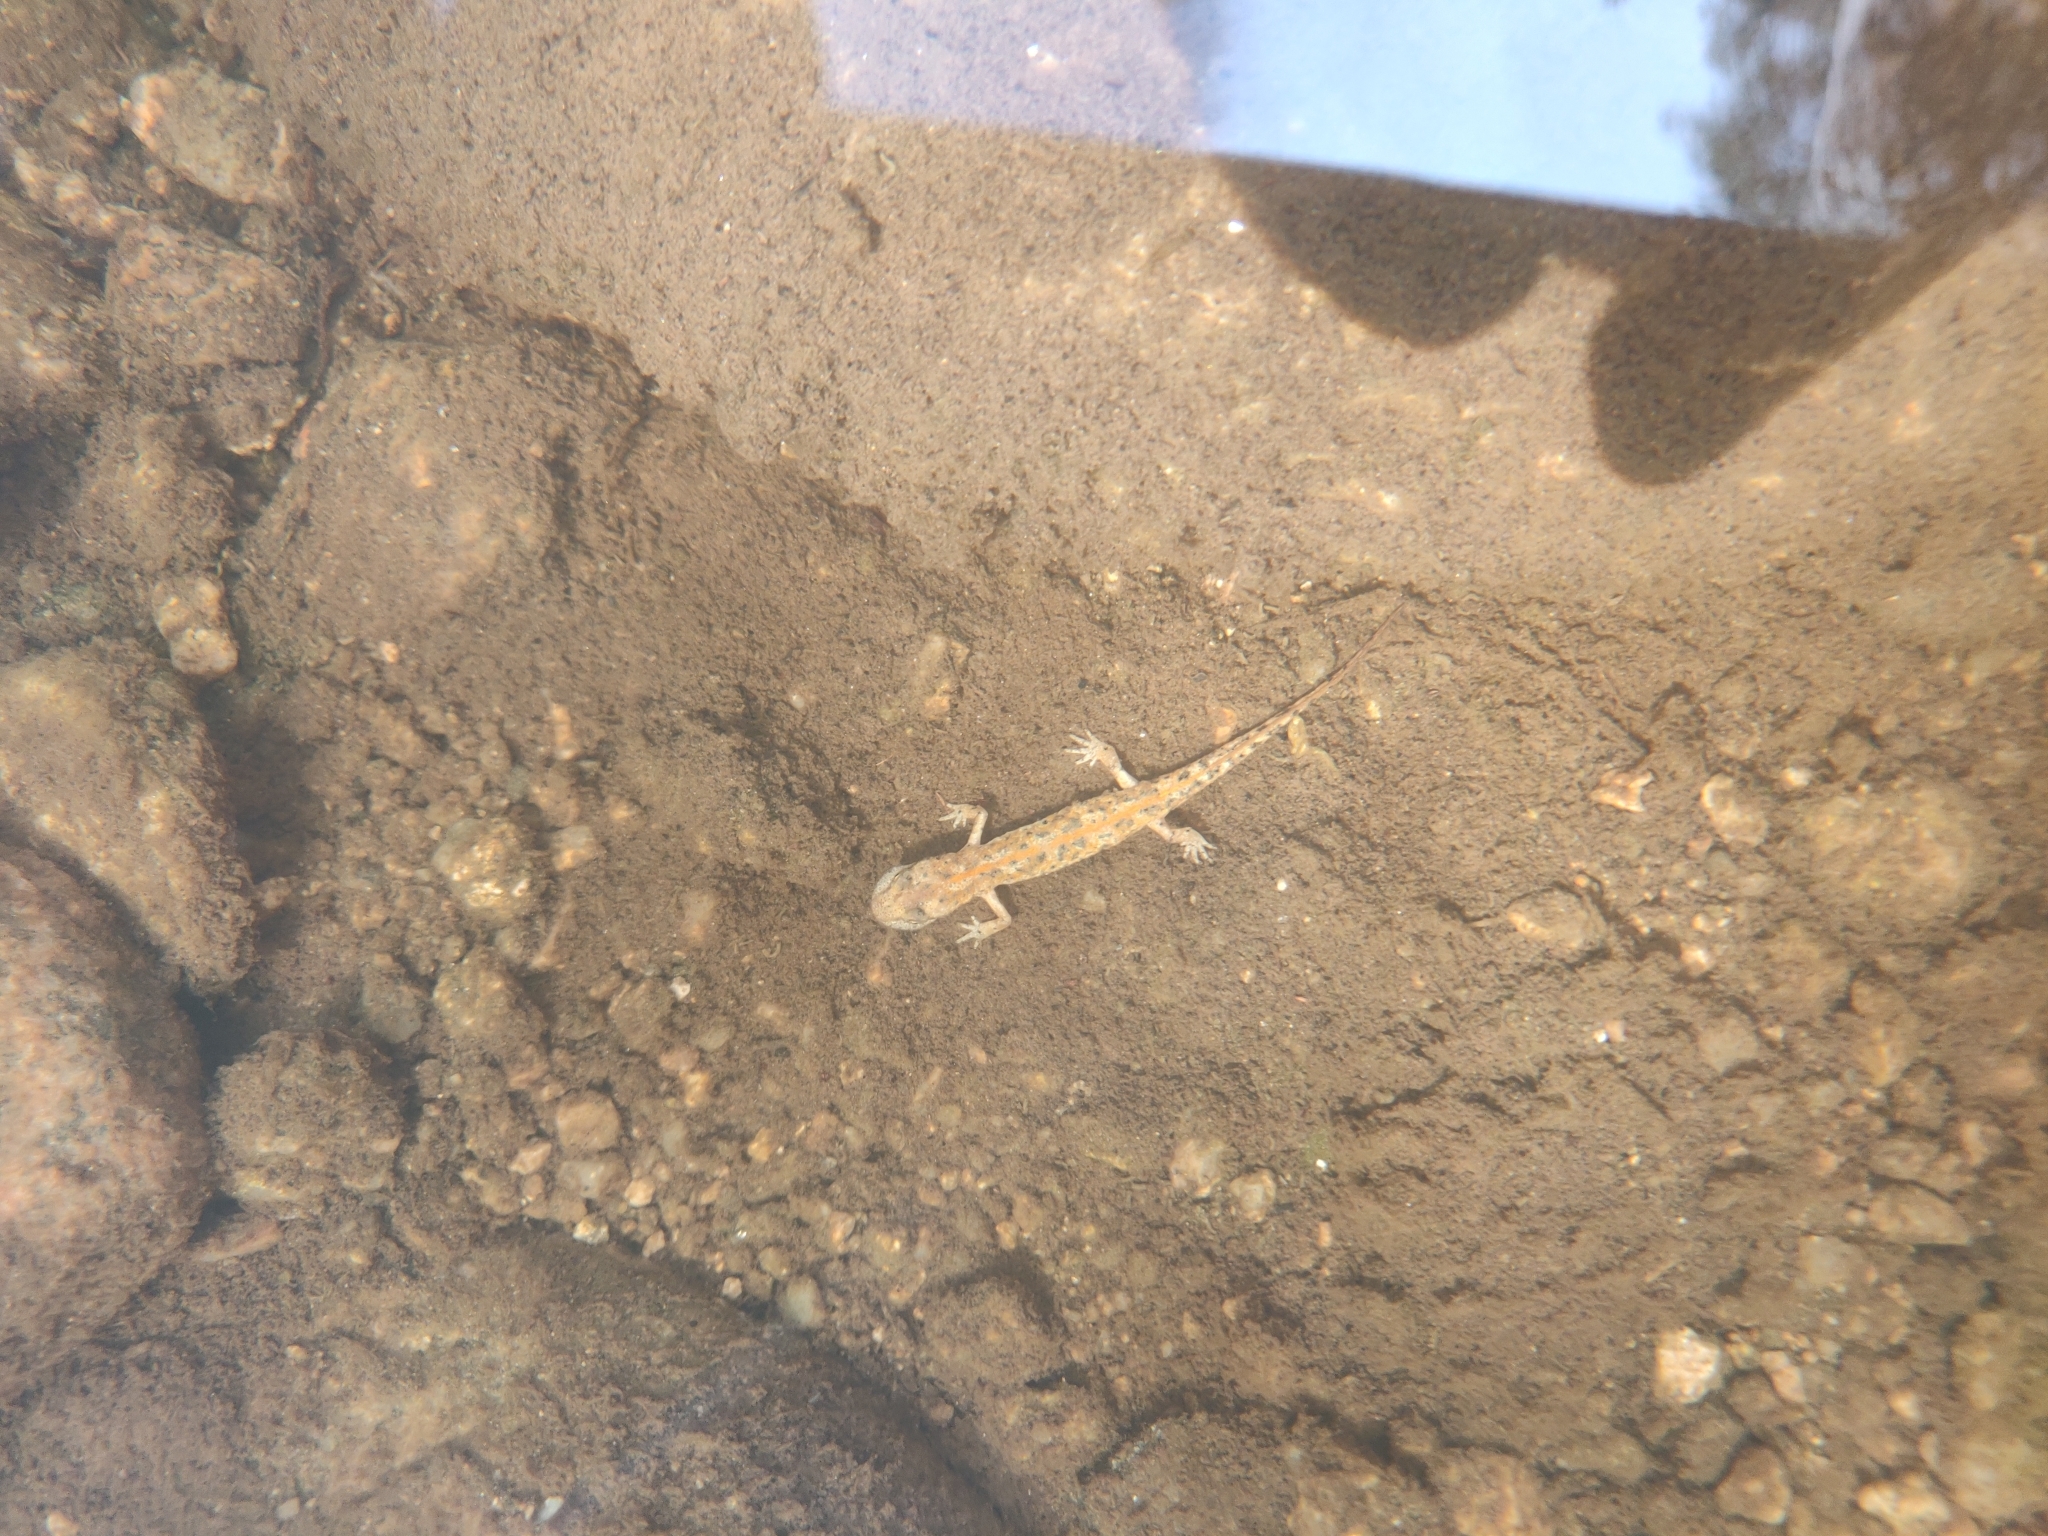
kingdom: Animalia
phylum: Chordata
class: Amphibia
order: Caudata
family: Salamandridae
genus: Euproctus
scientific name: Euproctus platycephalus
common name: Sardinian brook salamander
